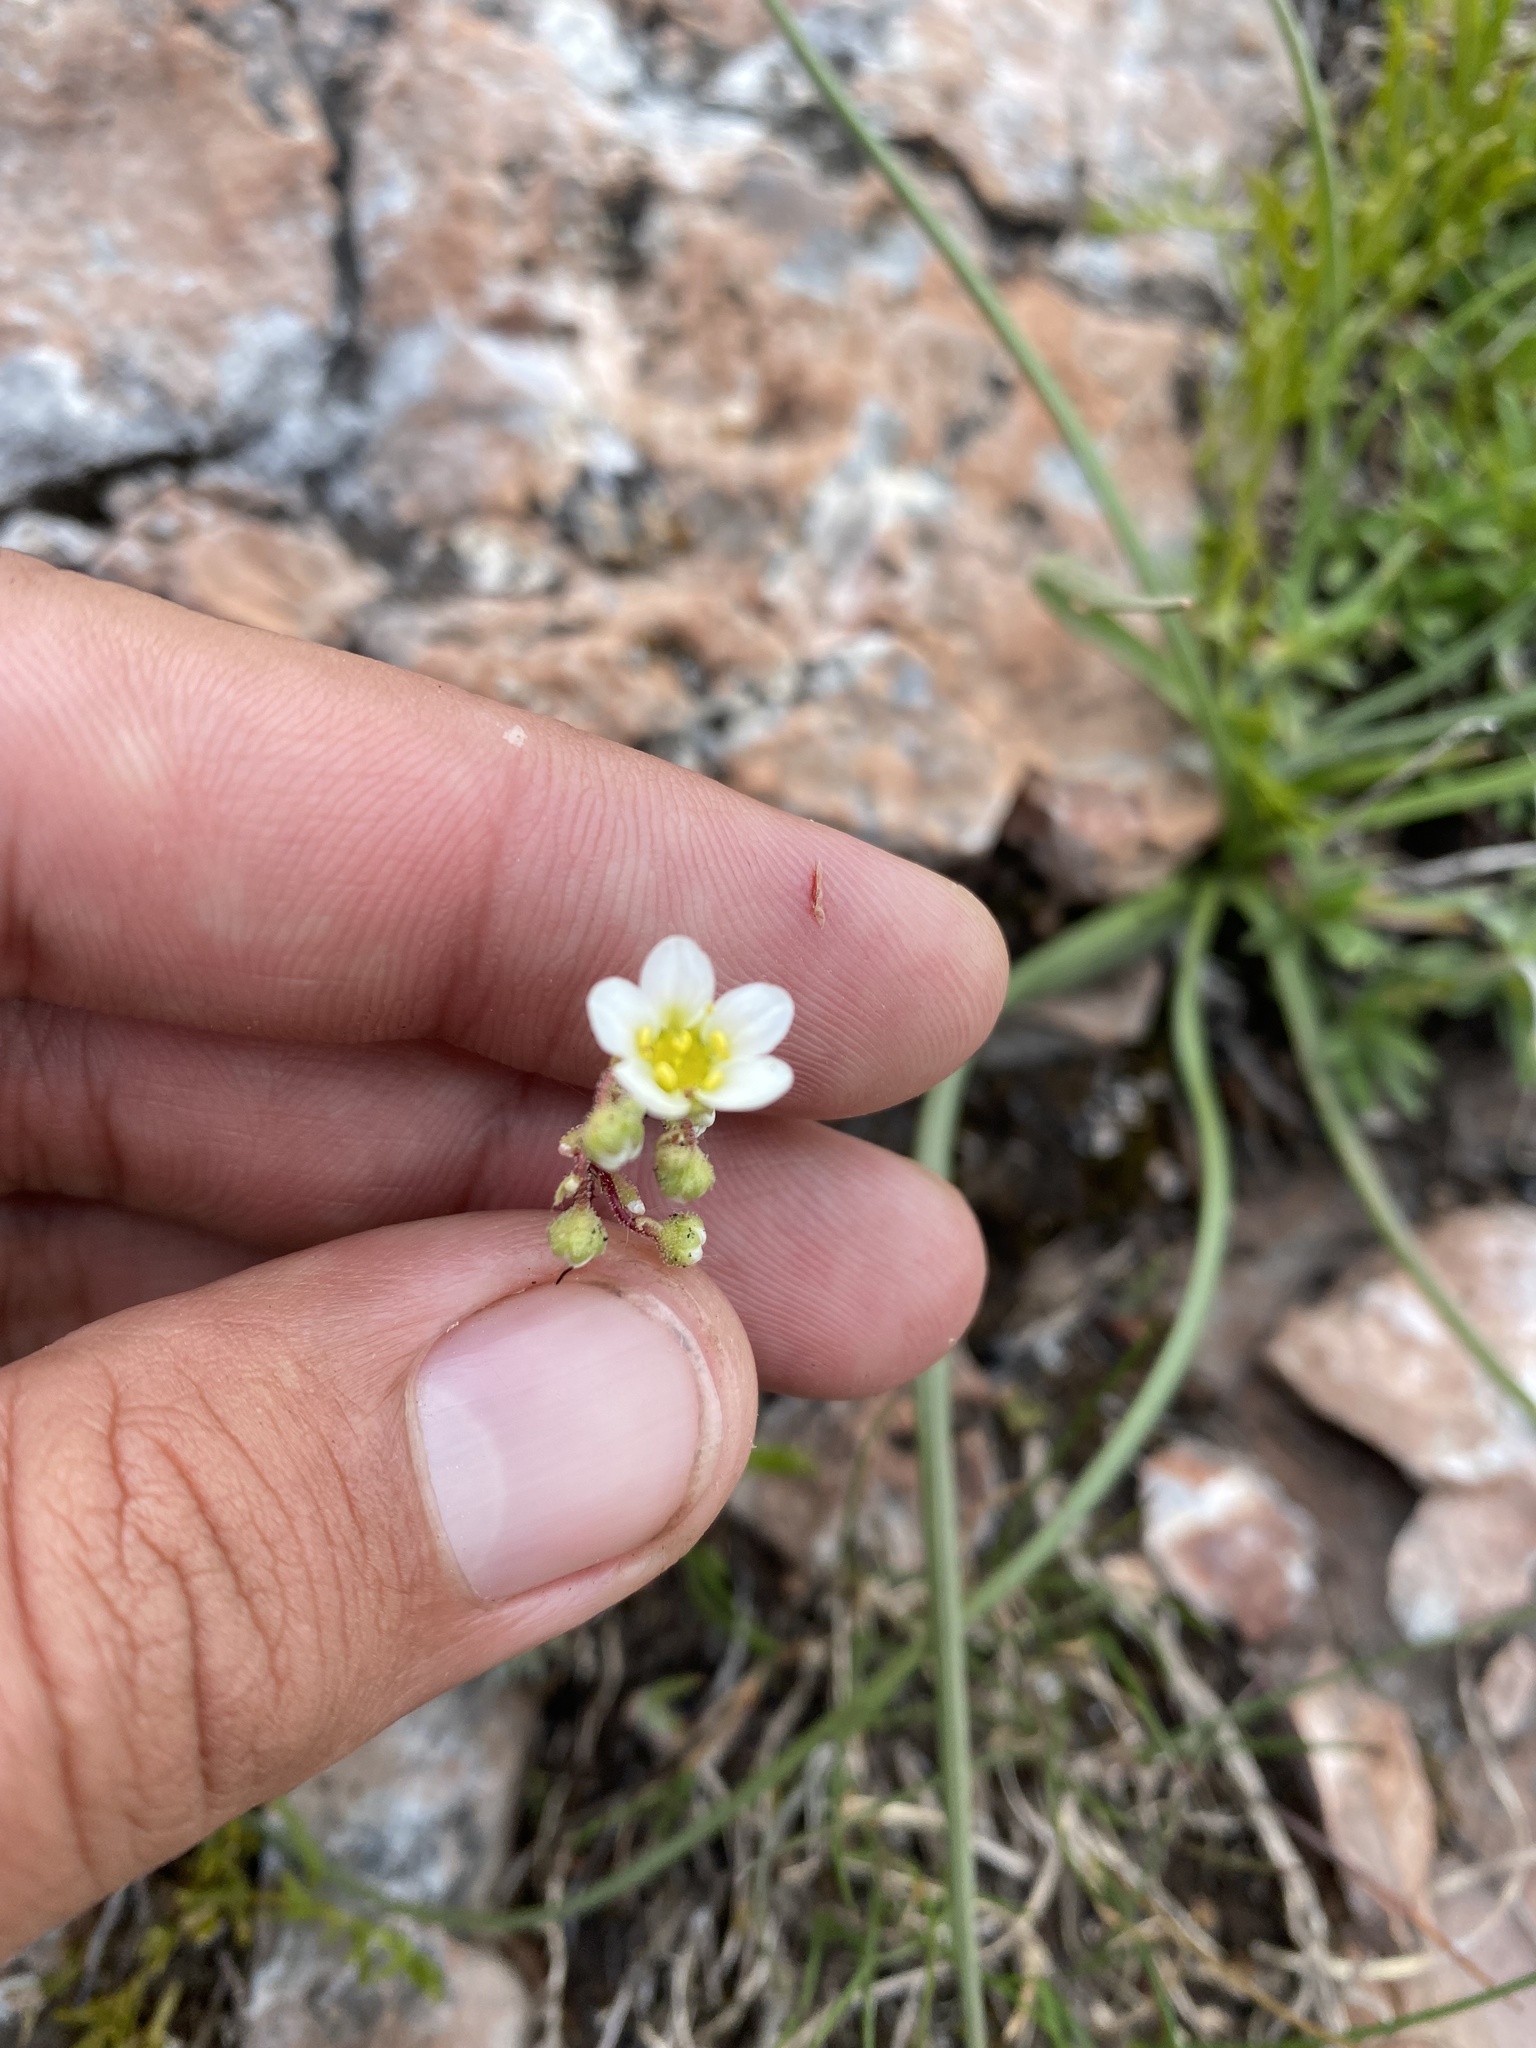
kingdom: Plantae
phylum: Tracheophyta
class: Magnoliopsida
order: Saxifragales
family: Saxifragaceae
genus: Saxifraga
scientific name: Saxifraga paniculata
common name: Livelong saxifrage
